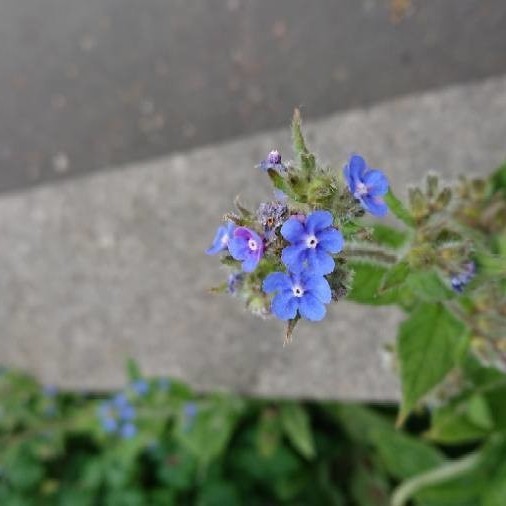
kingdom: Plantae
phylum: Tracheophyta
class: Magnoliopsida
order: Boraginales
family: Boraginaceae
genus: Pentaglottis
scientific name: Pentaglottis sempervirens
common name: Green alkanet
